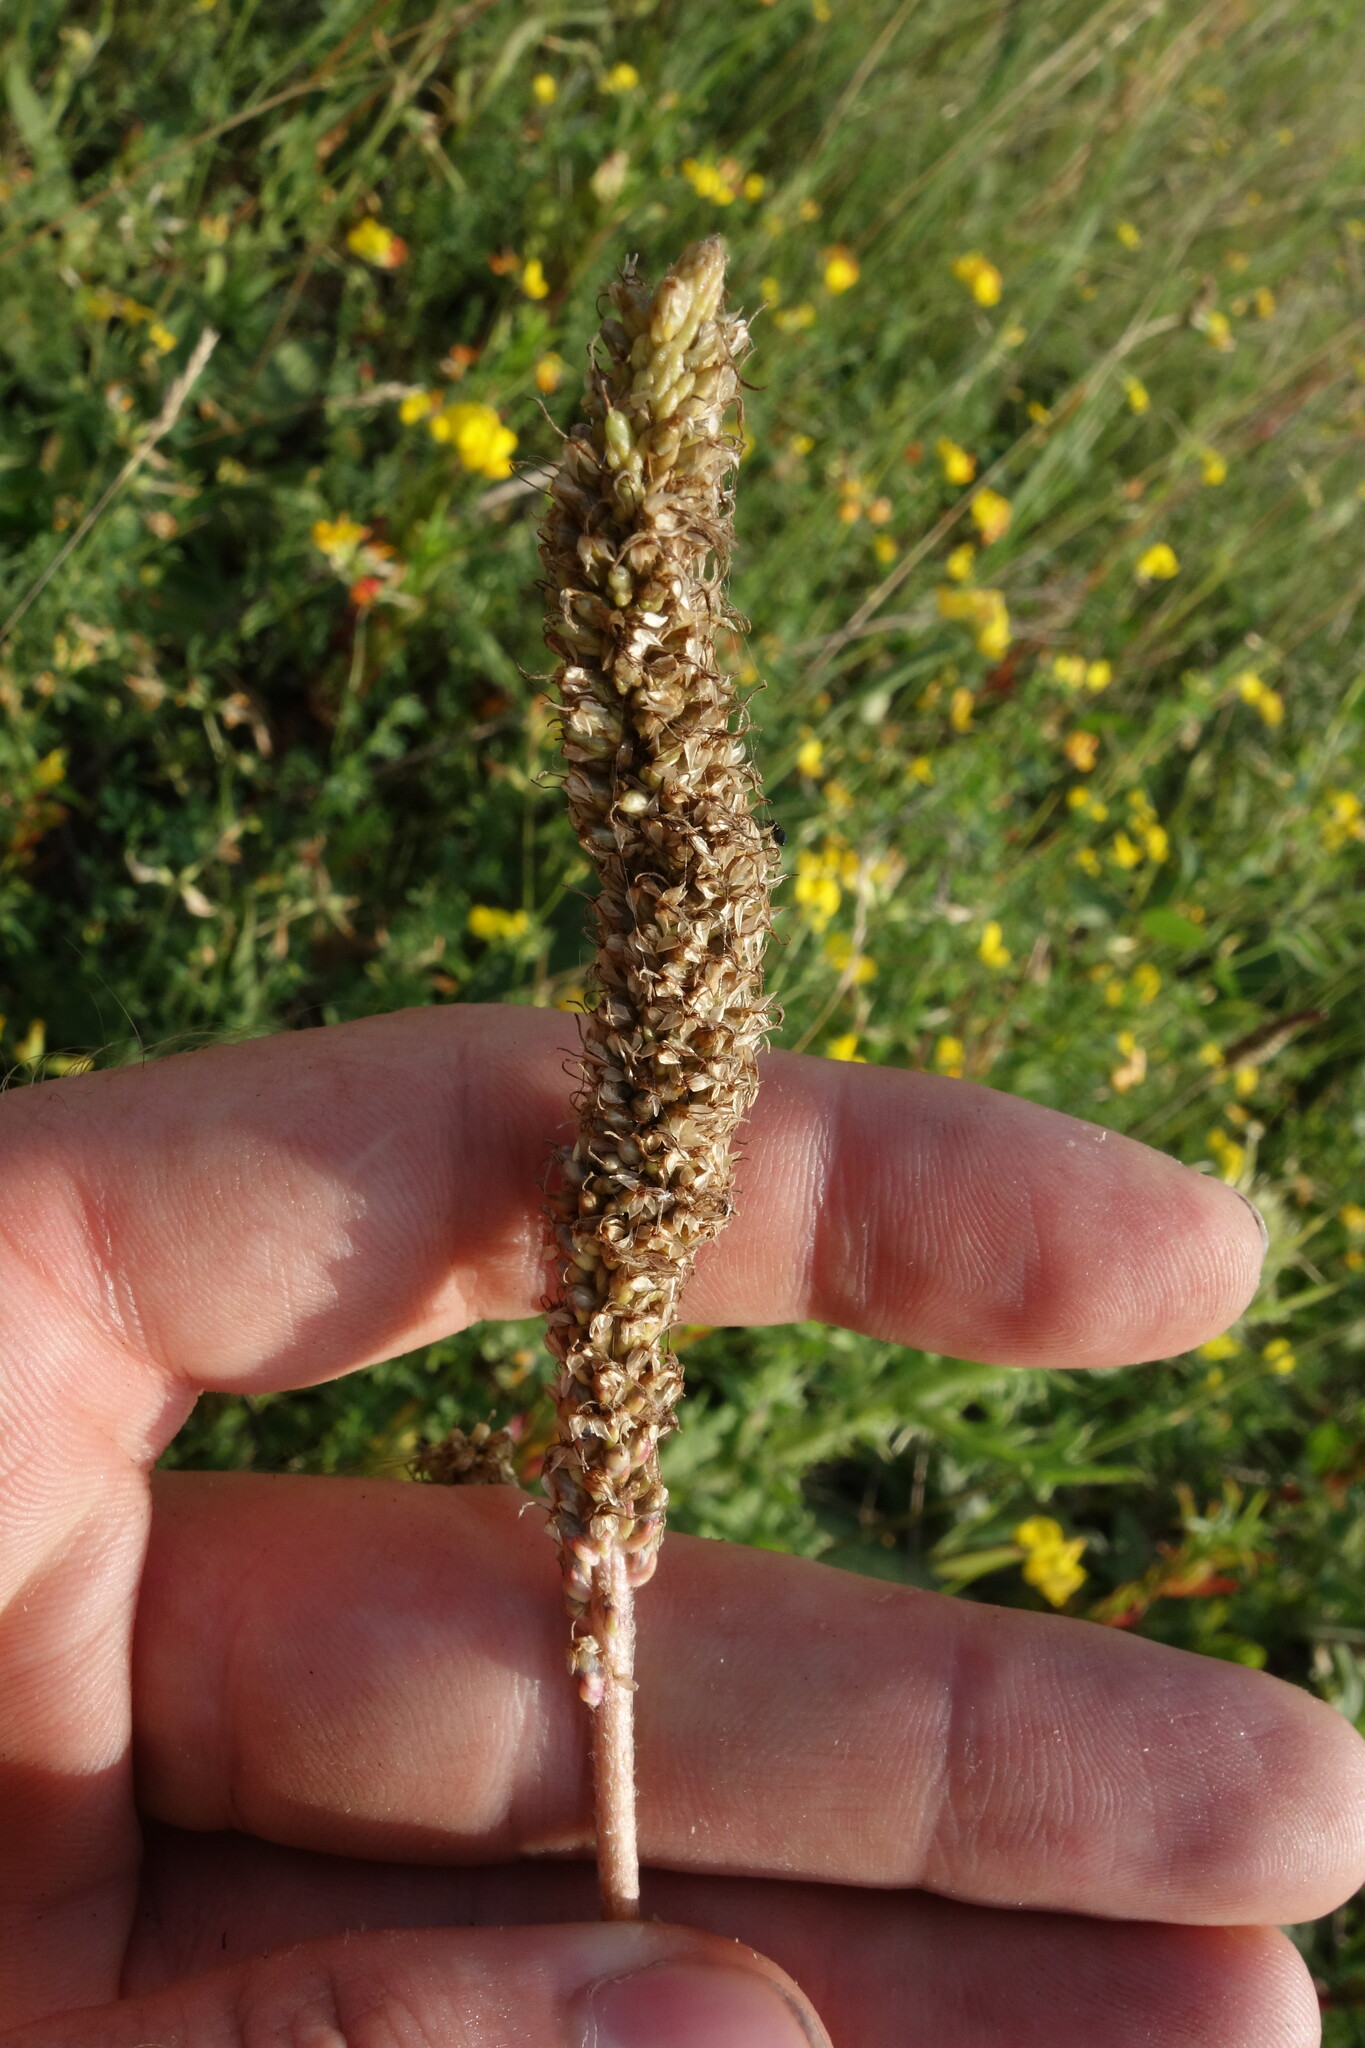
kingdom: Plantae
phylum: Tracheophyta
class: Magnoliopsida
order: Lamiales
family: Plantaginaceae
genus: Plantago
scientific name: Plantago maxima
